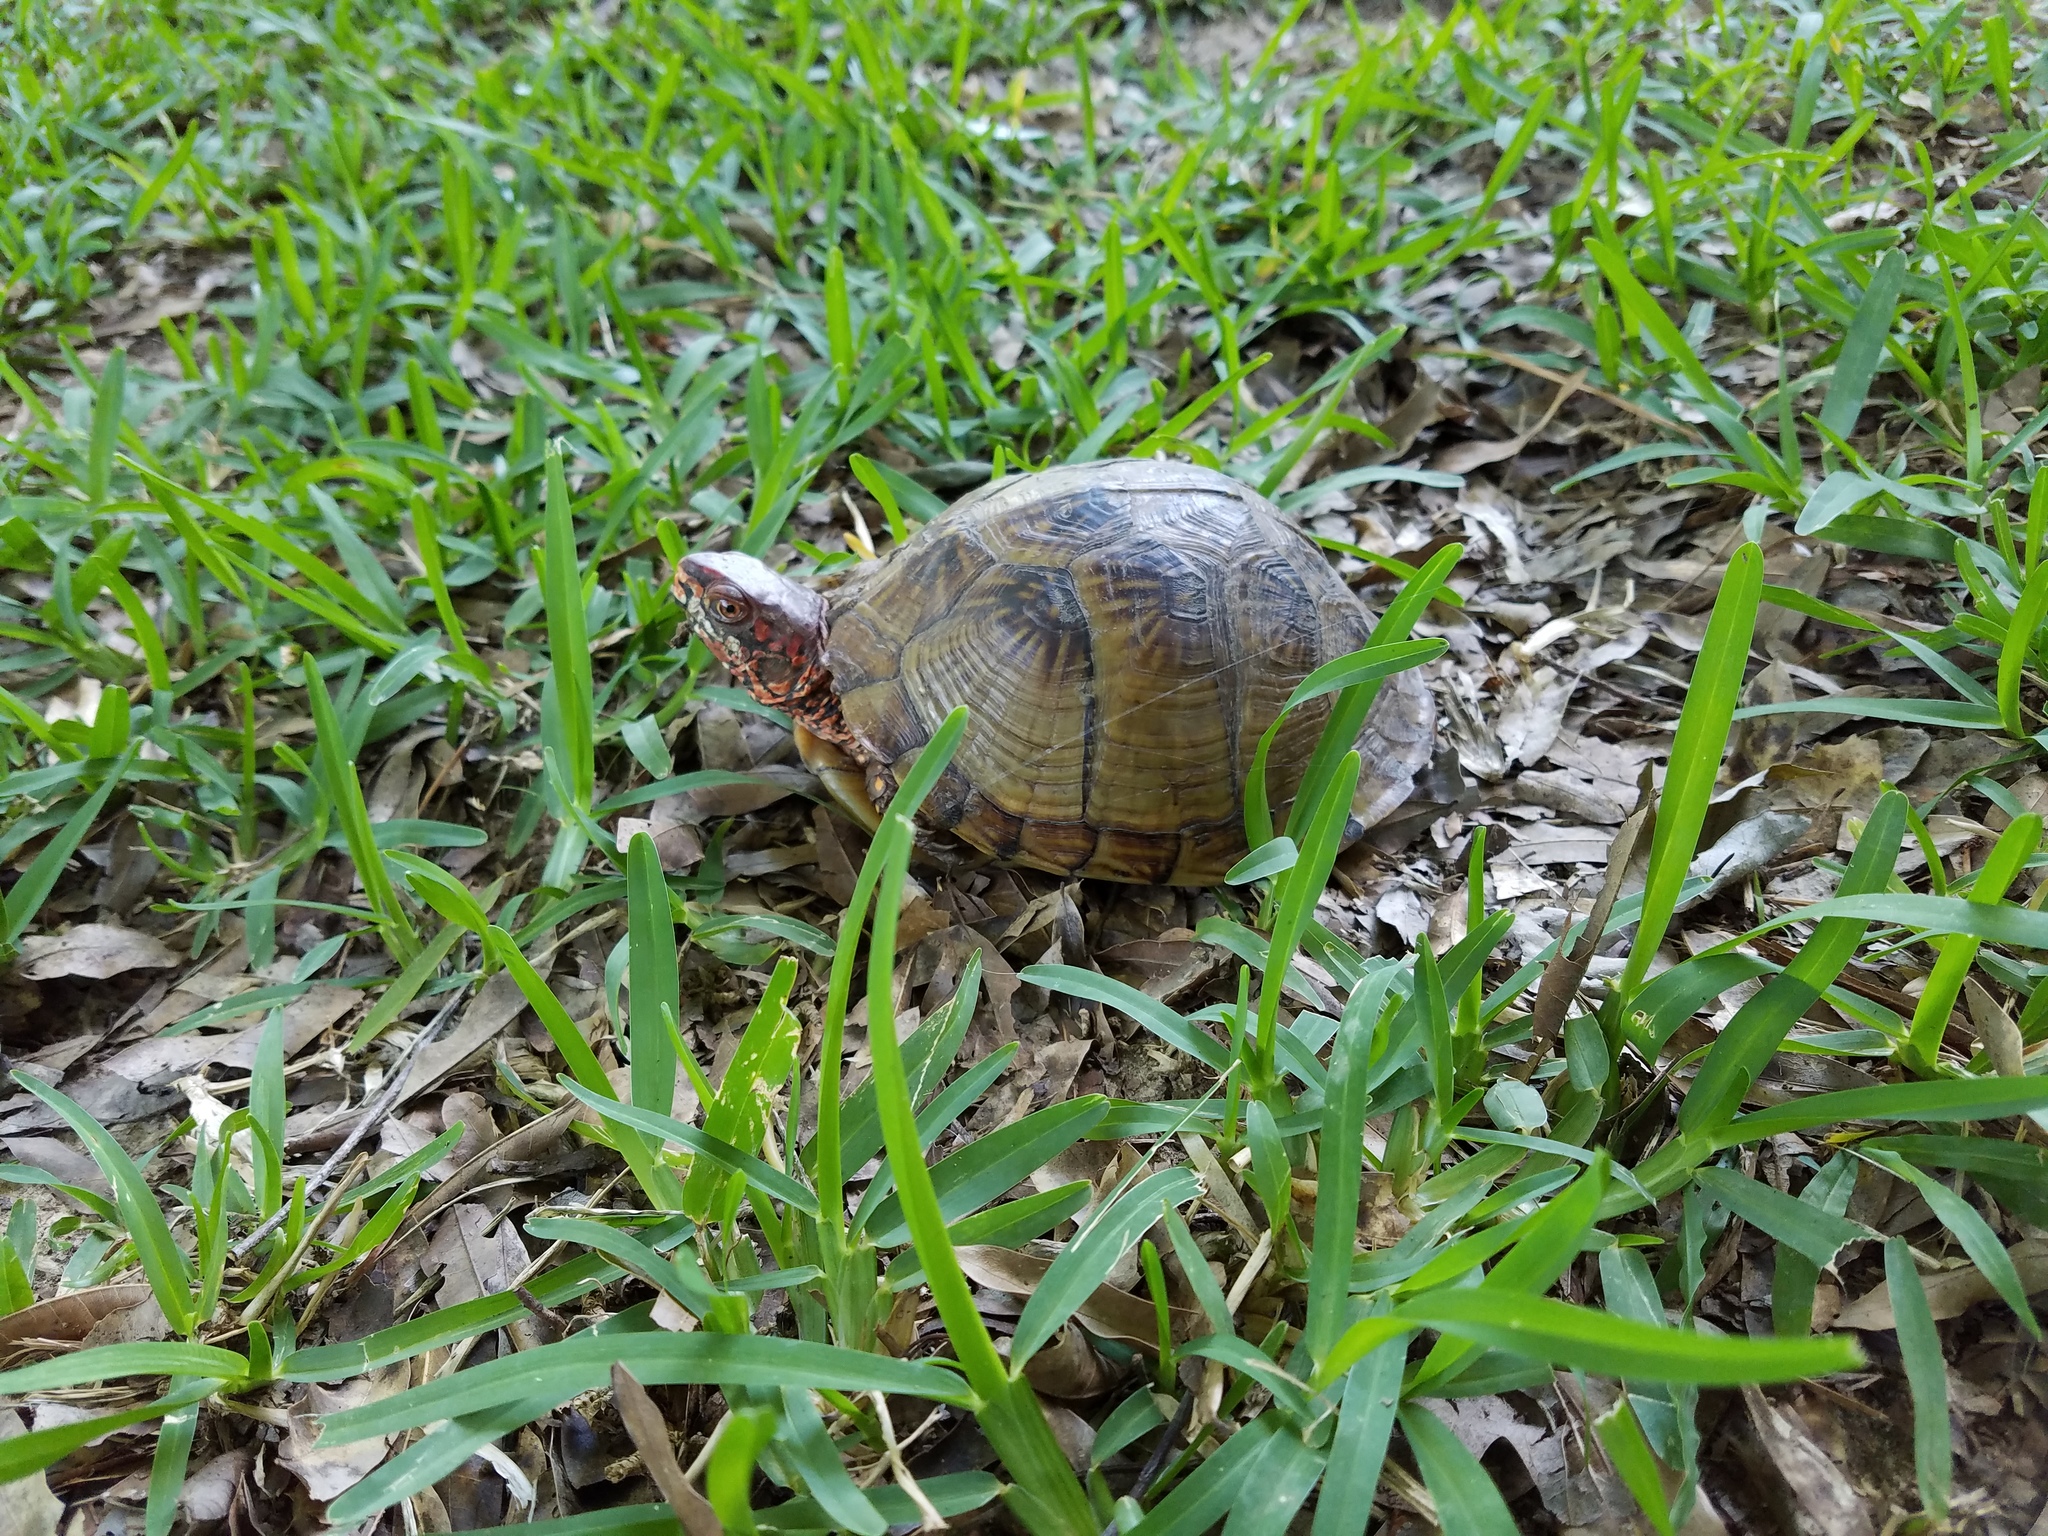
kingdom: Animalia
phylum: Chordata
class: Testudines
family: Emydidae
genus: Terrapene
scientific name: Terrapene carolina
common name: Common box turtle
